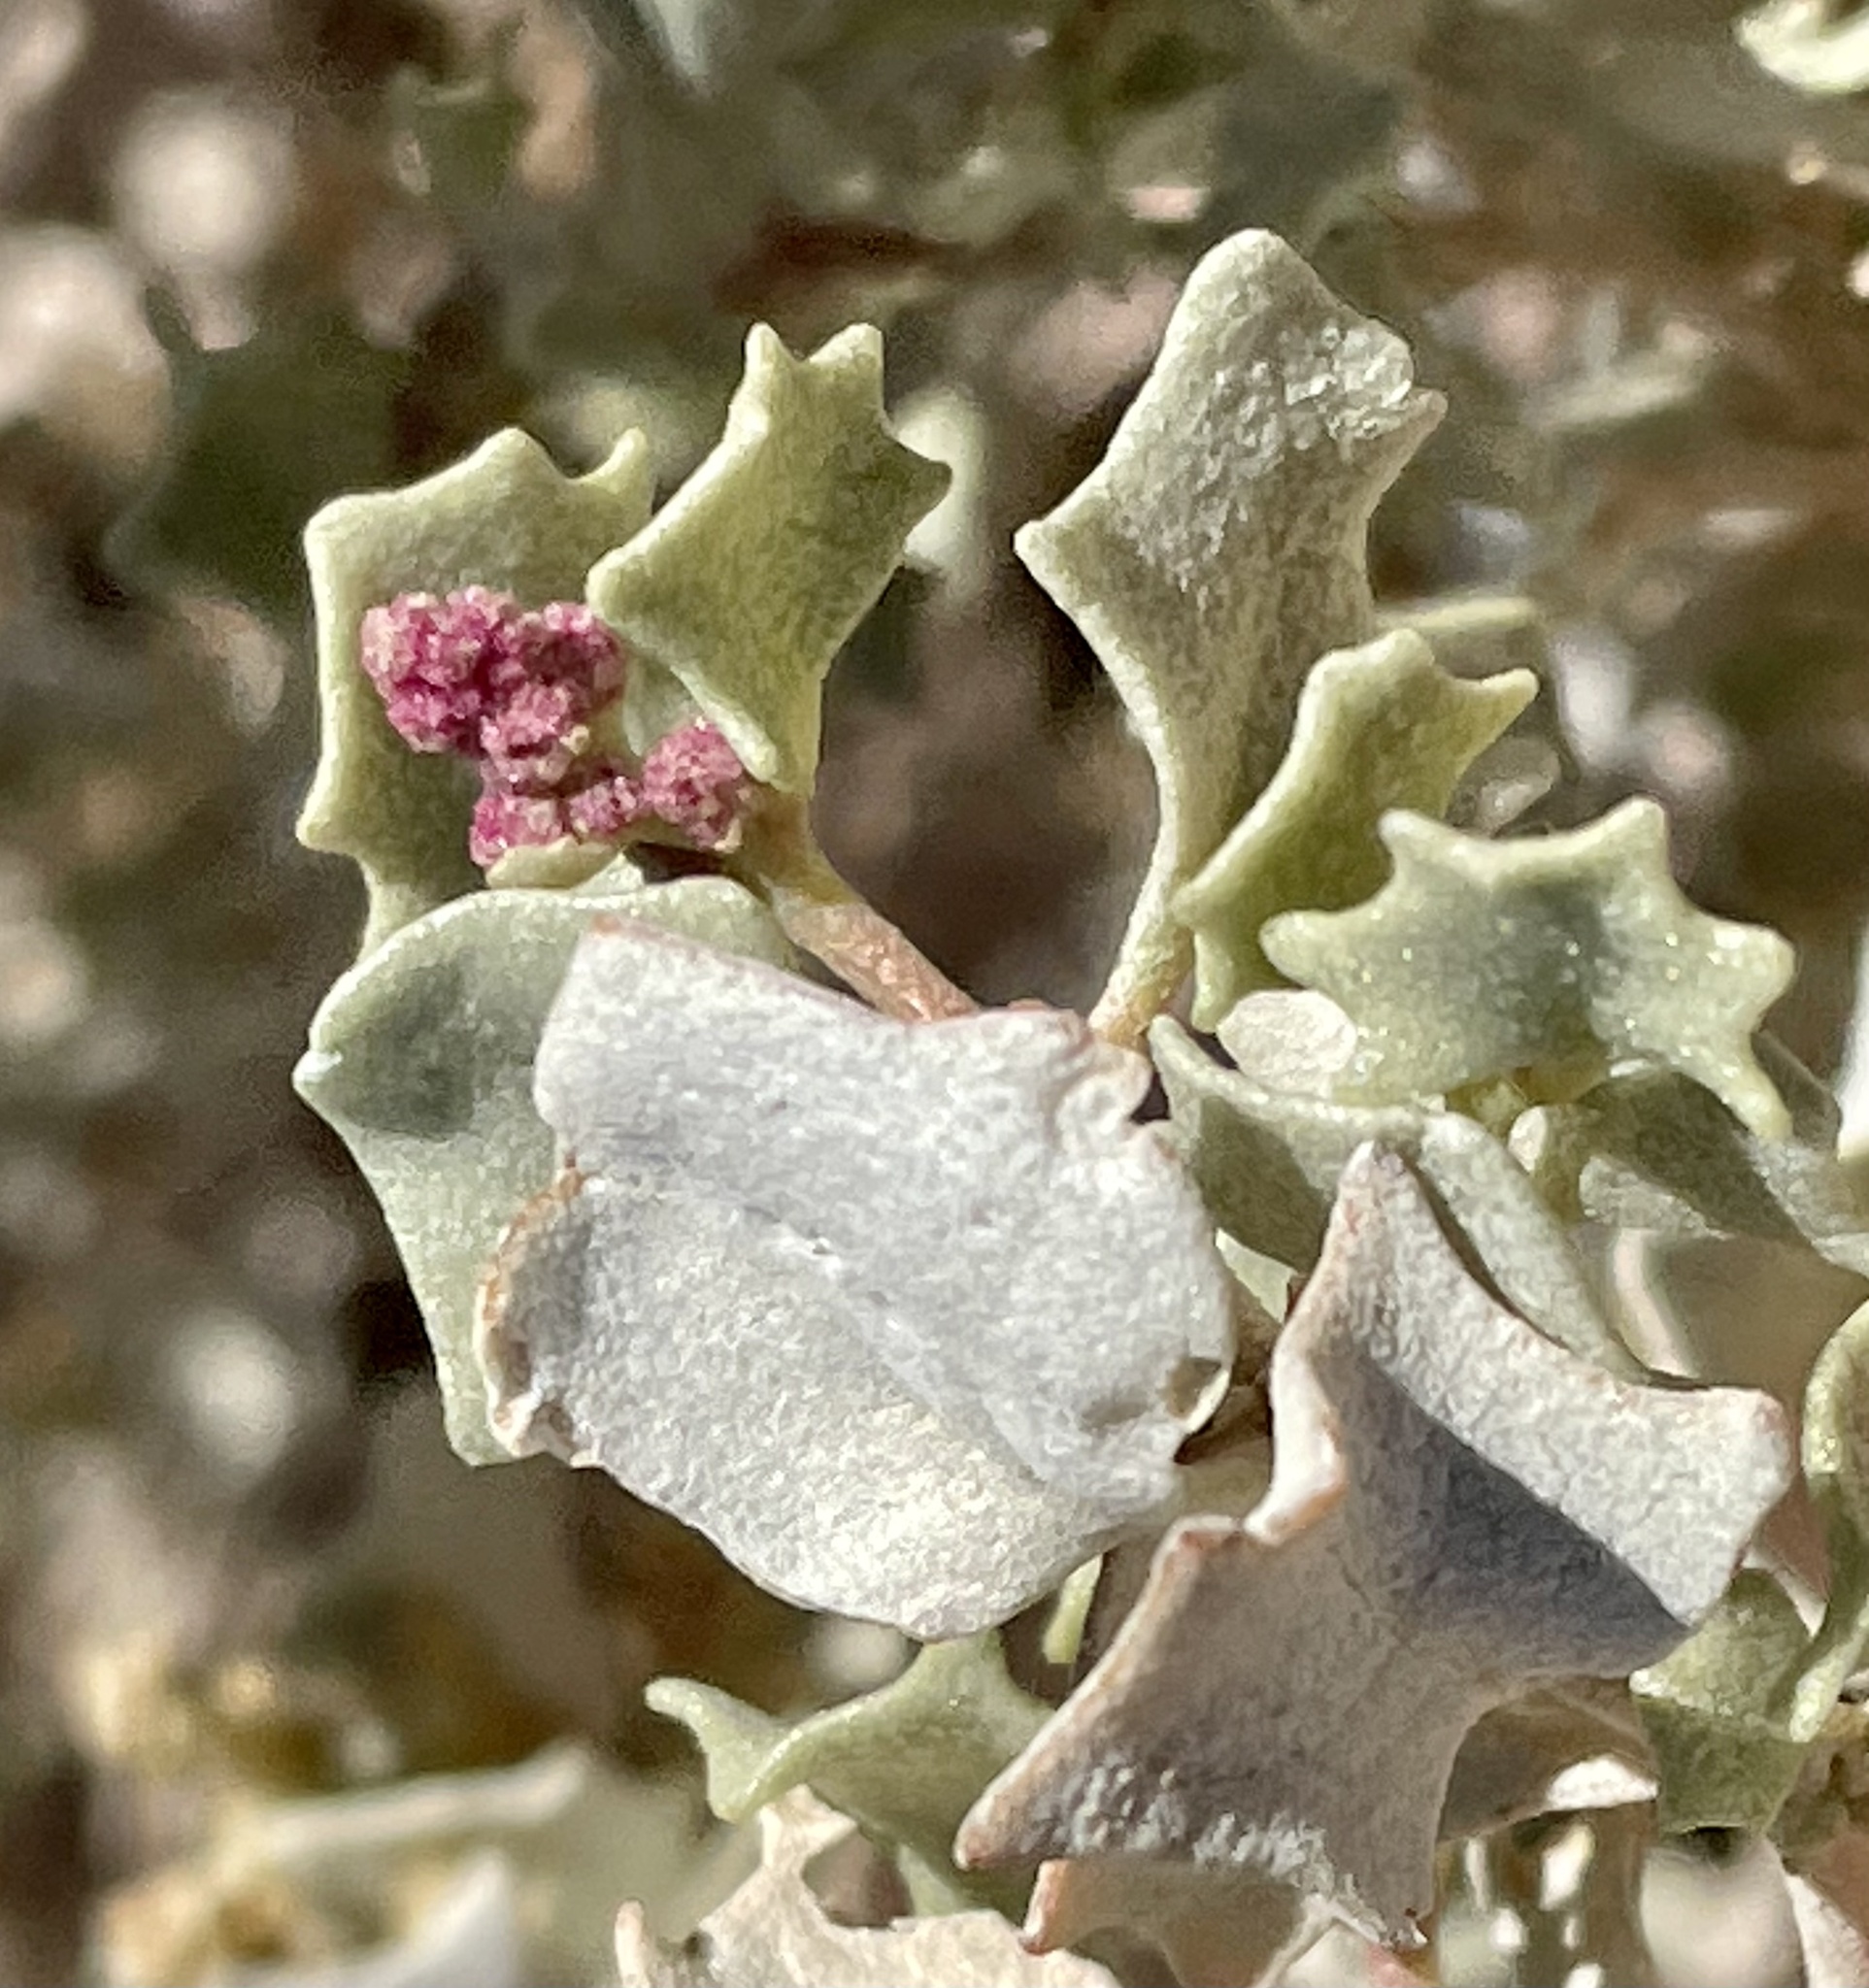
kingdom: Plantae
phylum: Tracheophyta
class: Magnoliopsida
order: Caryophyllales
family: Amaranthaceae
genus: Atriplex
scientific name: Atriplex hymenelytra
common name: Desert-holly
